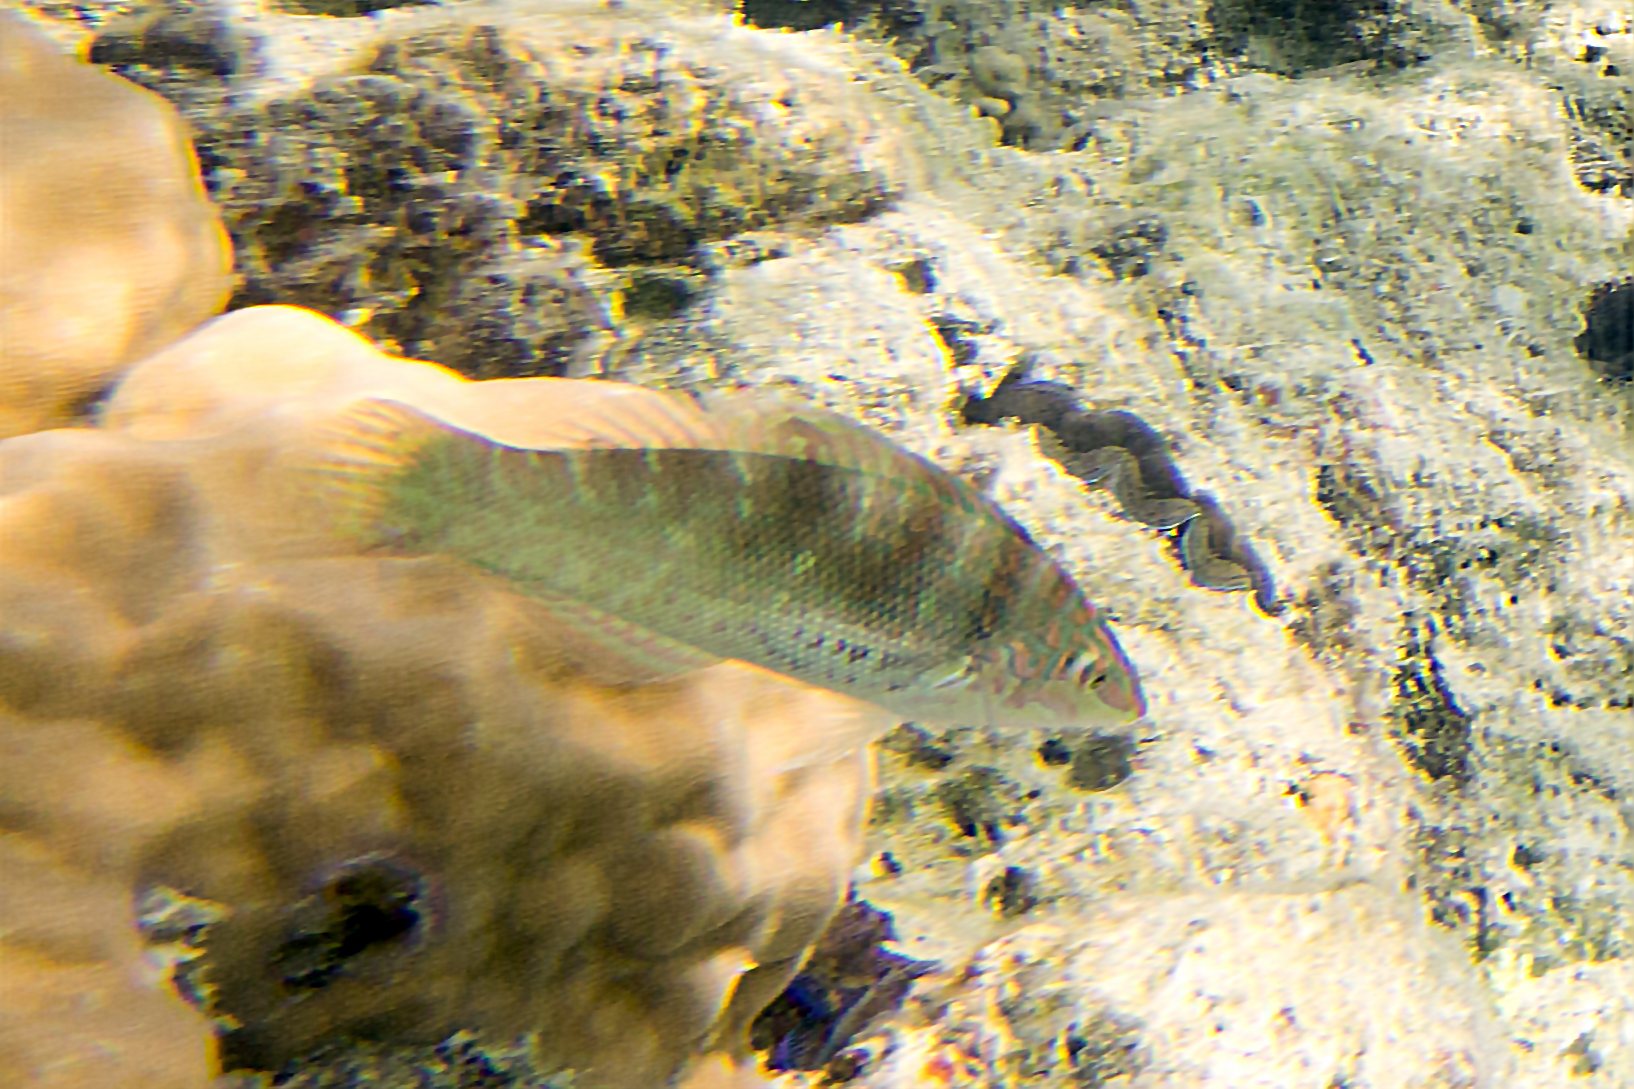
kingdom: Animalia
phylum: Chordata
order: Perciformes
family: Labridae
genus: Coris
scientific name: Coris batuensis
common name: Batu coris
